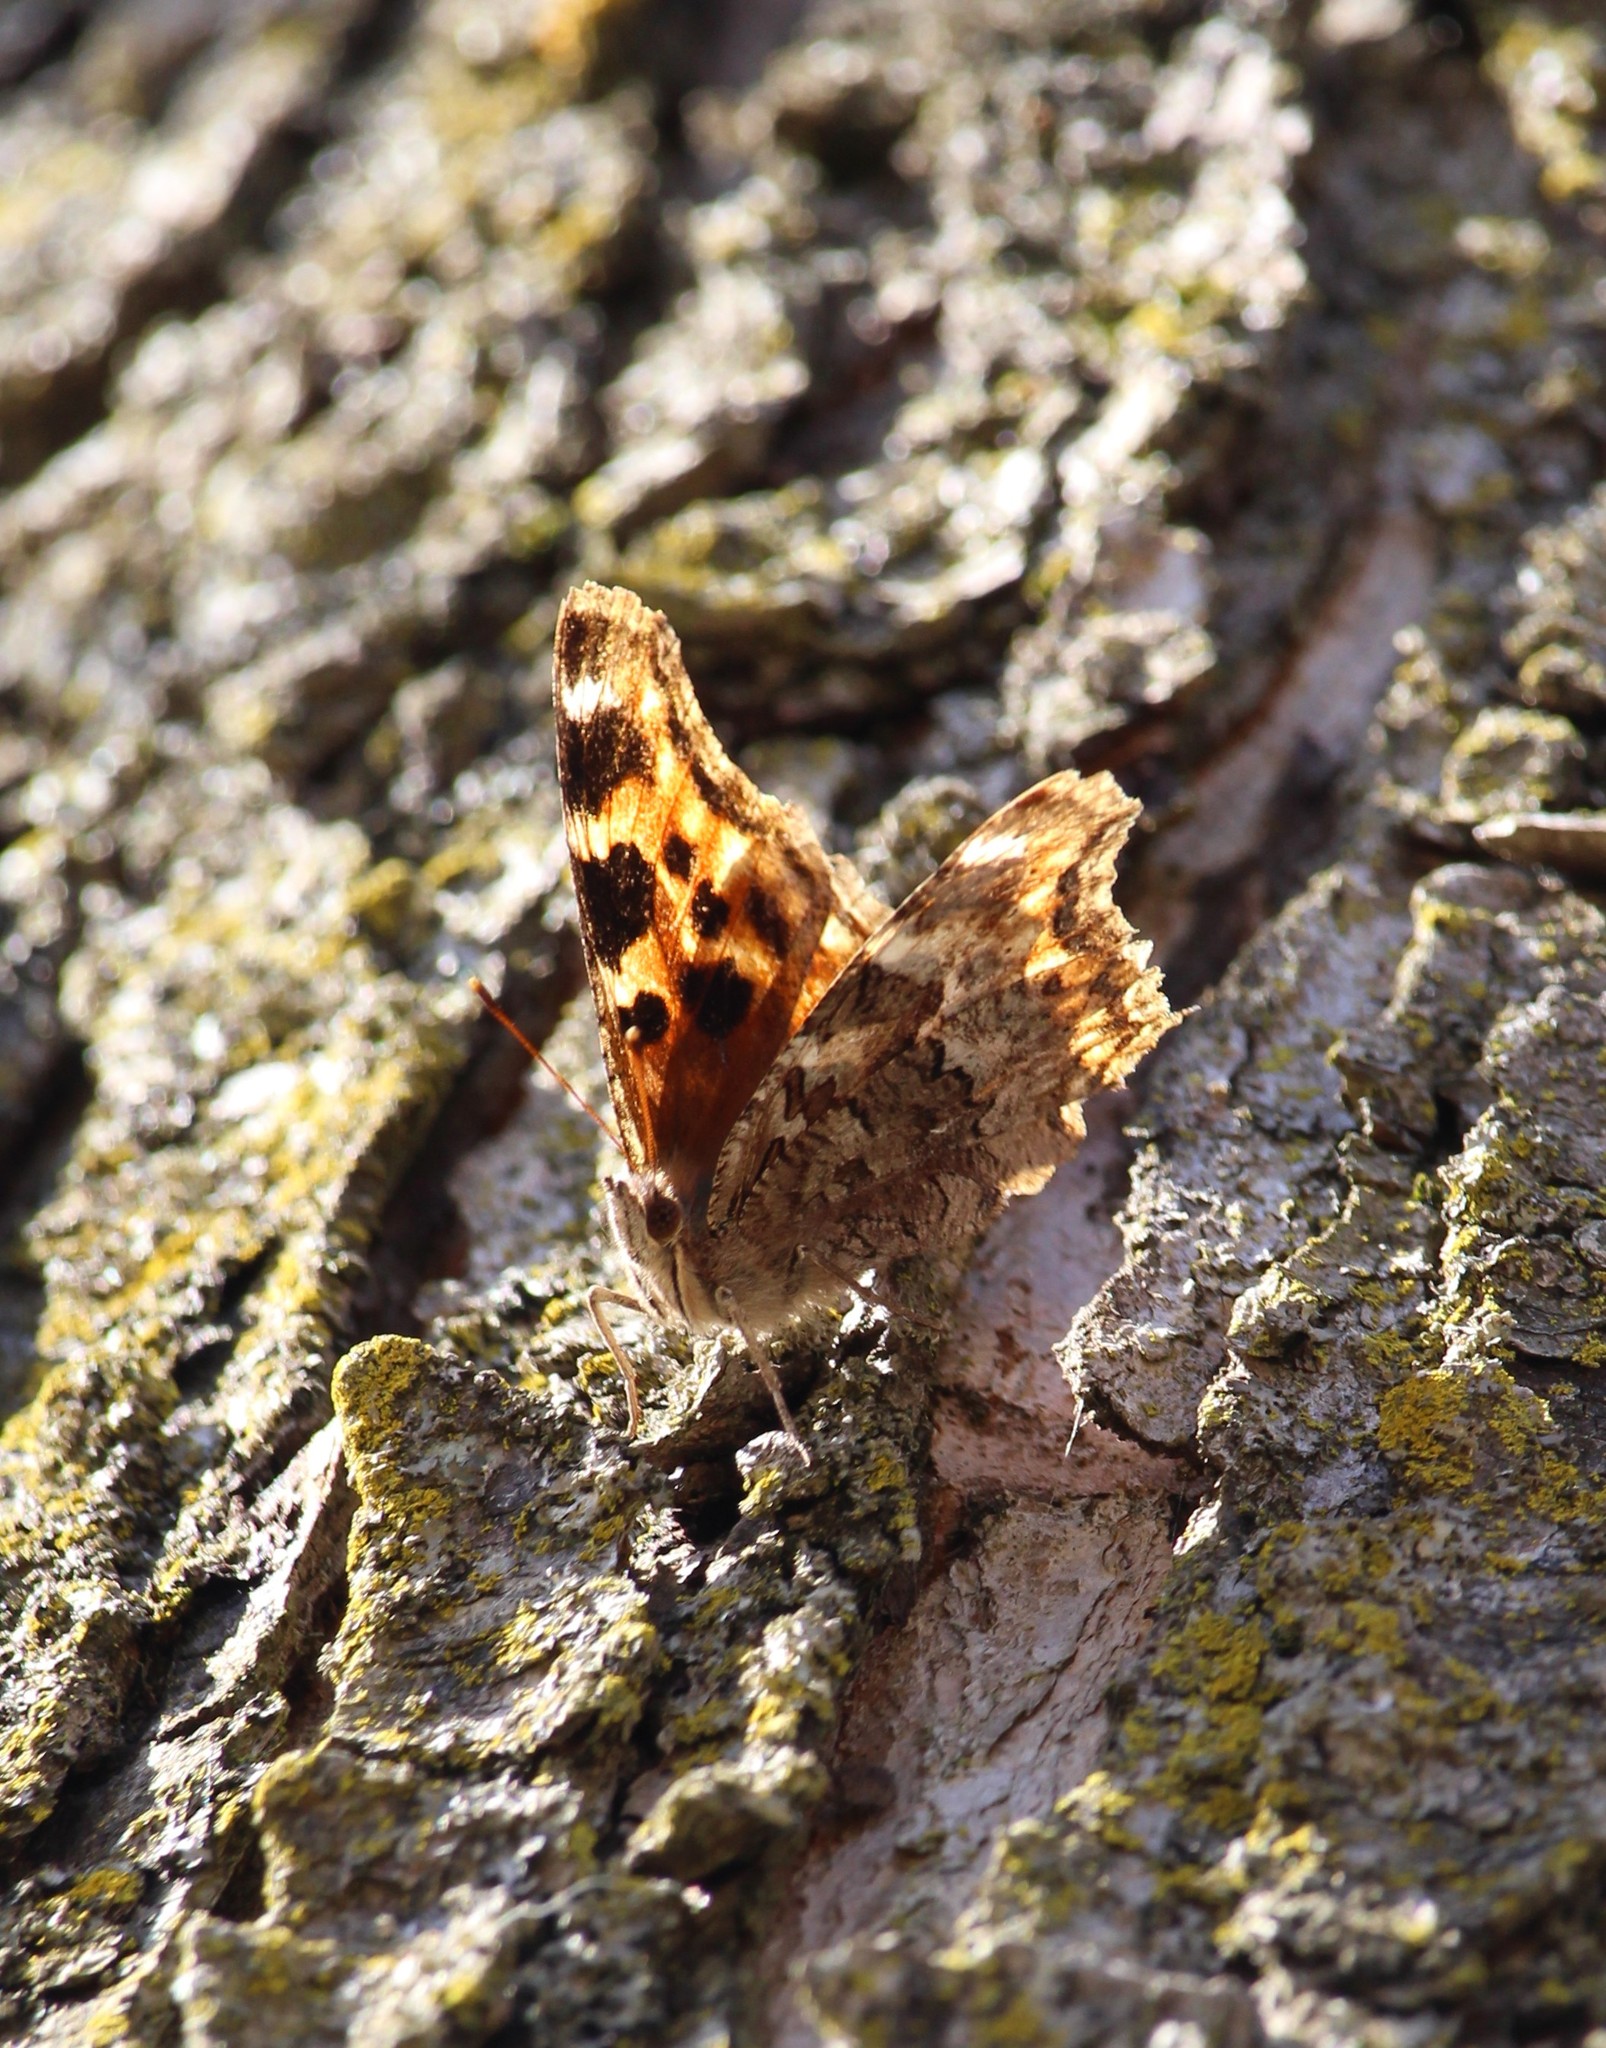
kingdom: Animalia
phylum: Arthropoda
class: Insecta
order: Lepidoptera
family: Nymphalidae
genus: Polygonia
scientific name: Polygonia vaualbum
